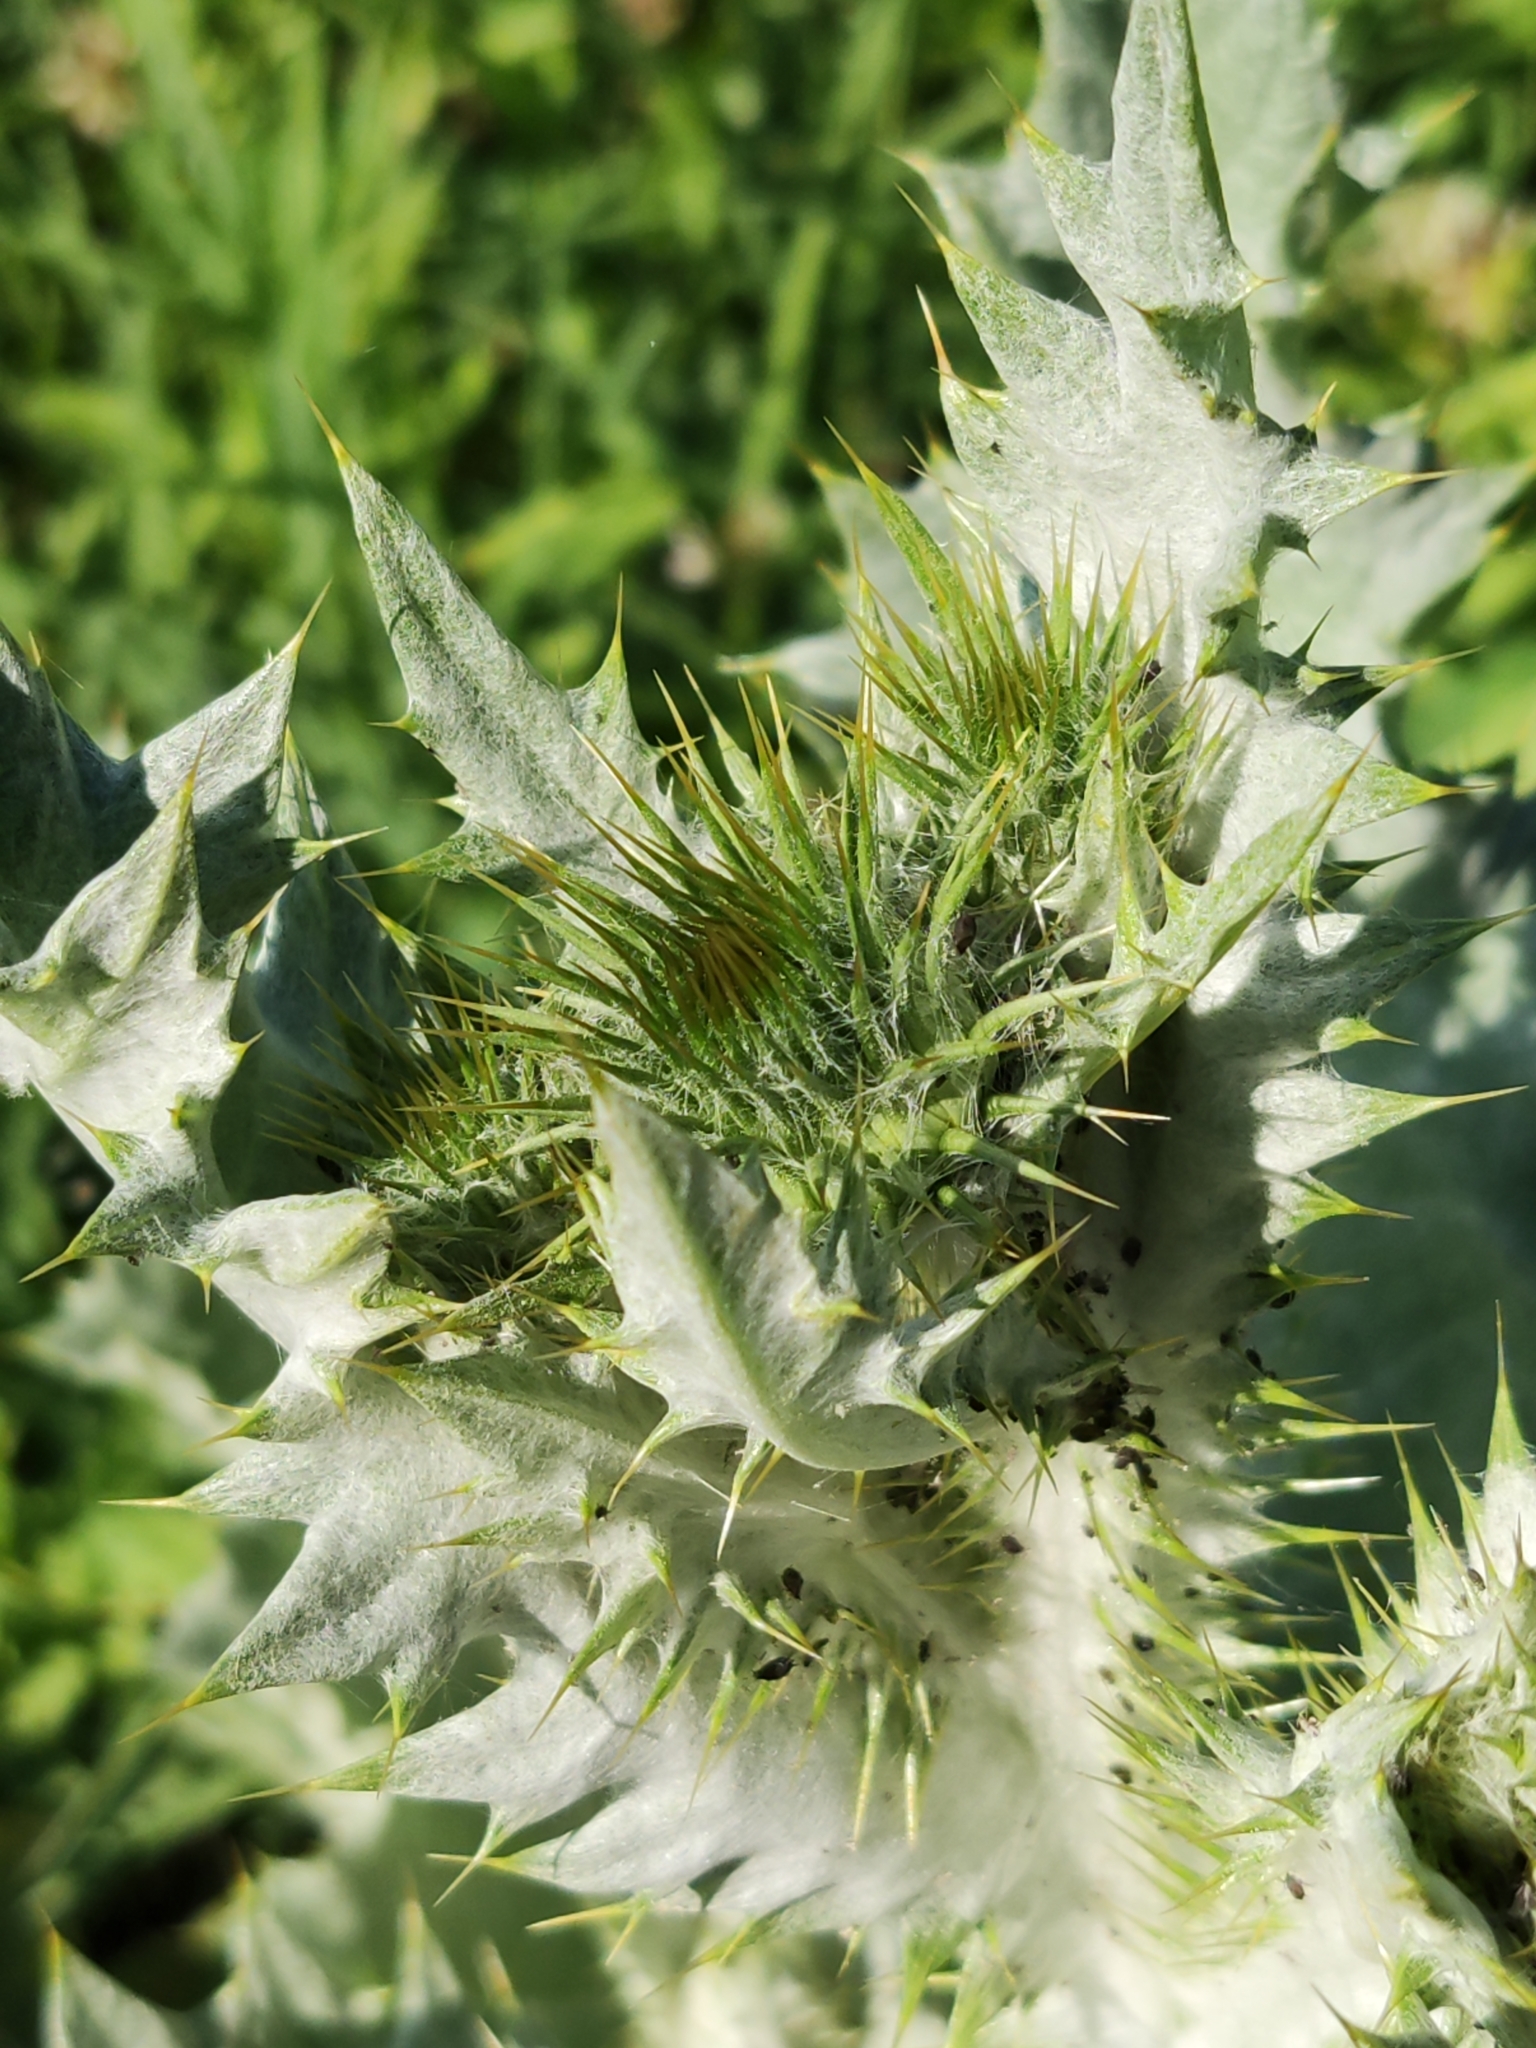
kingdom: Plantae
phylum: Tracheophyta
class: Magnoliopsida
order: Asterales
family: Asteraceae
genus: Onopordum
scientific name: Onopordum acanthium
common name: Scotch thistle
